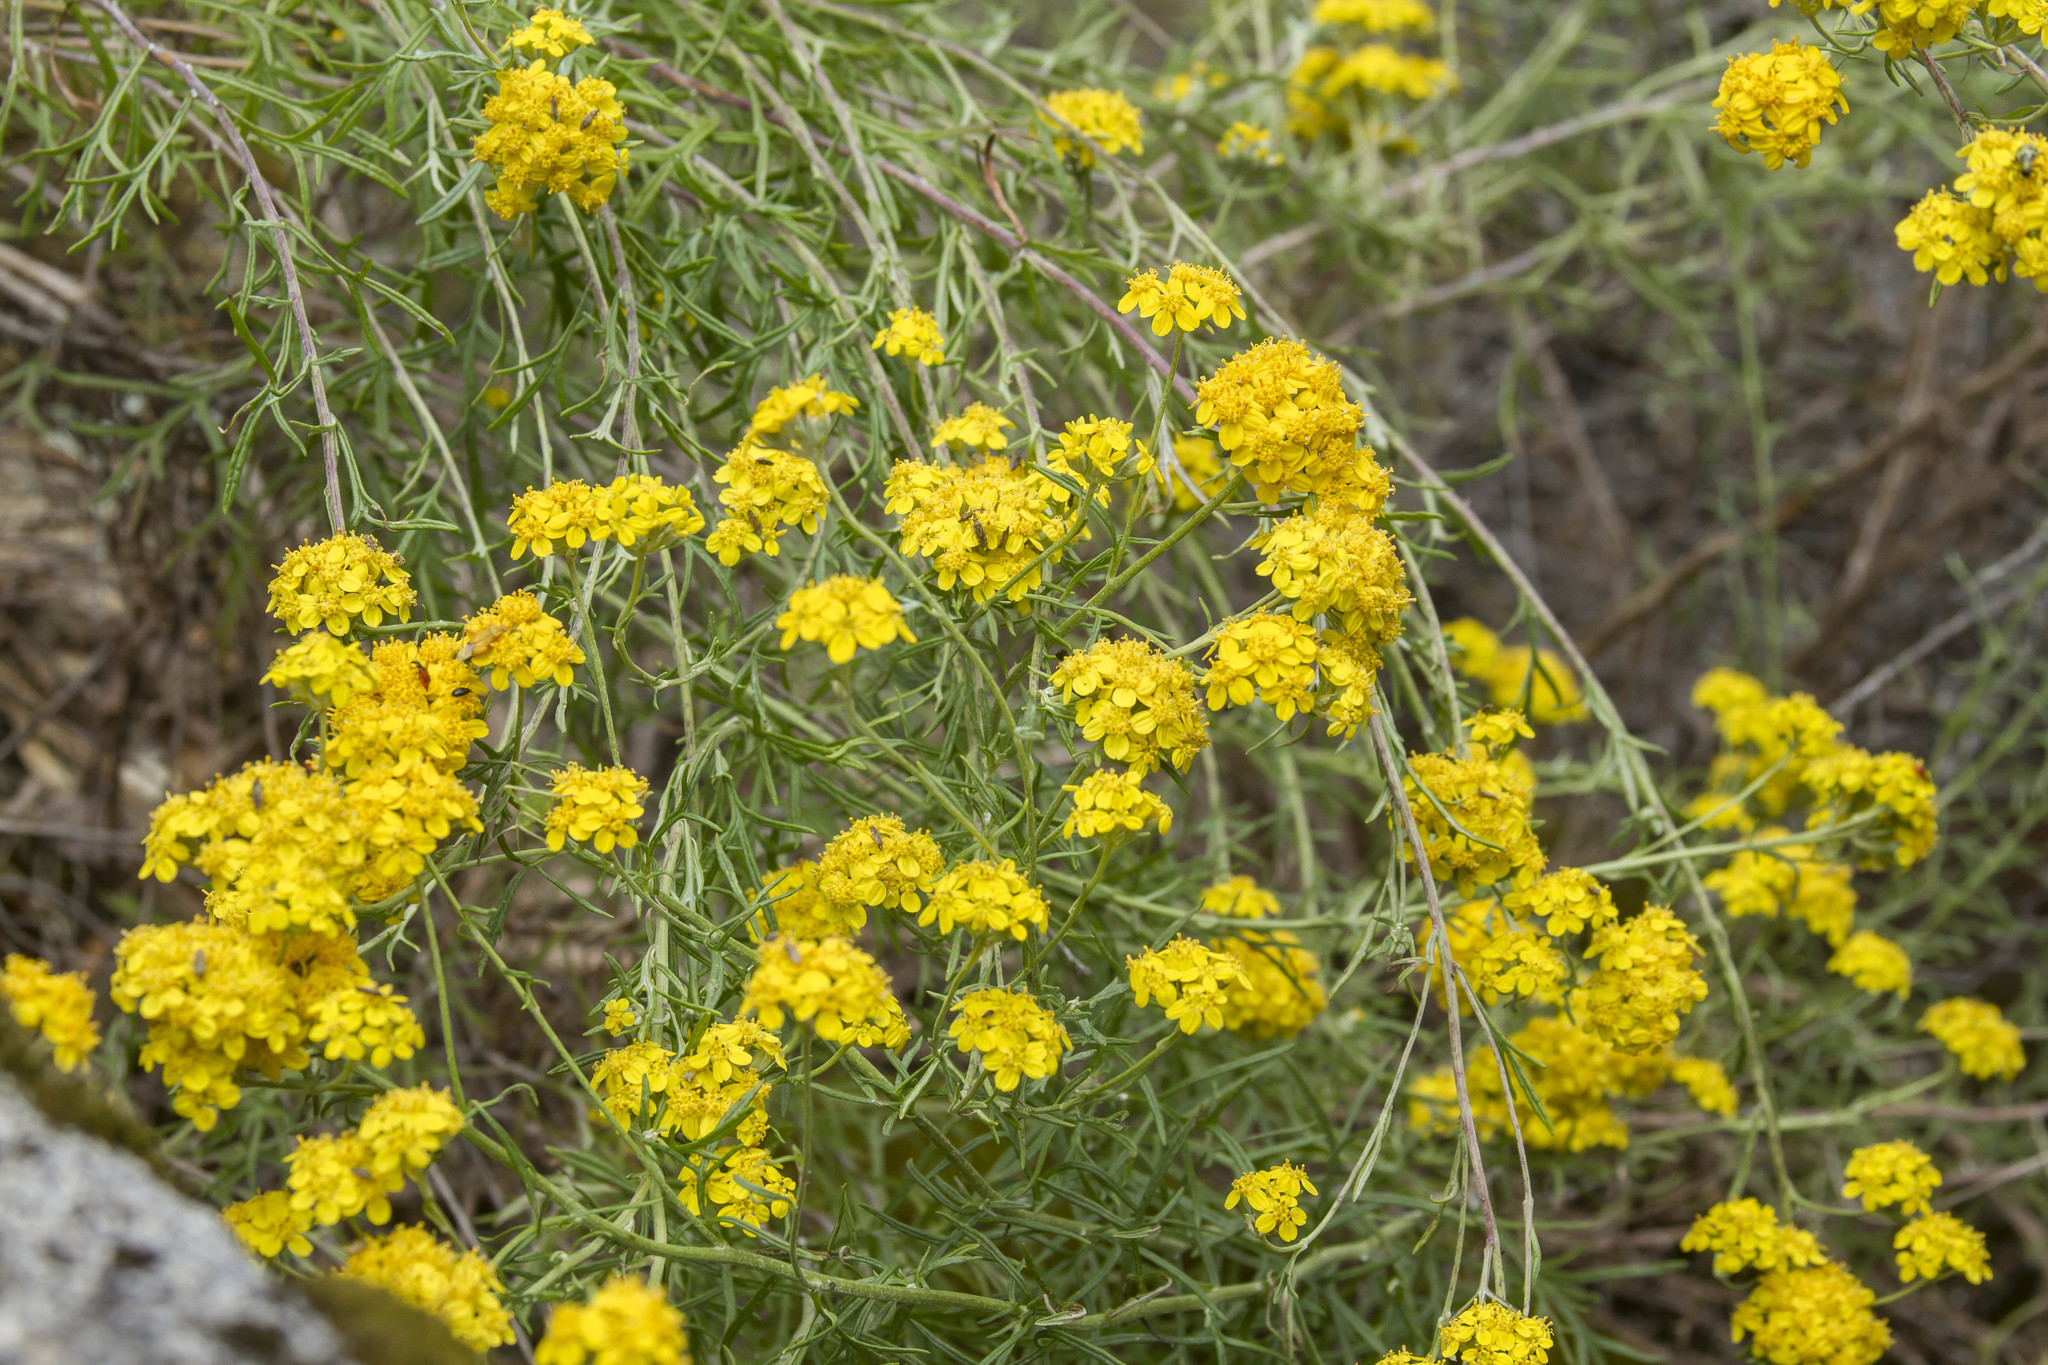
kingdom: Plantae
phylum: Tracheophyta
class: Magnoliopsida
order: Asterales
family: Asteraceae
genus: Eriophyllum
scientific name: Eriophyllum confertiflorum
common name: Golden-yarrow
